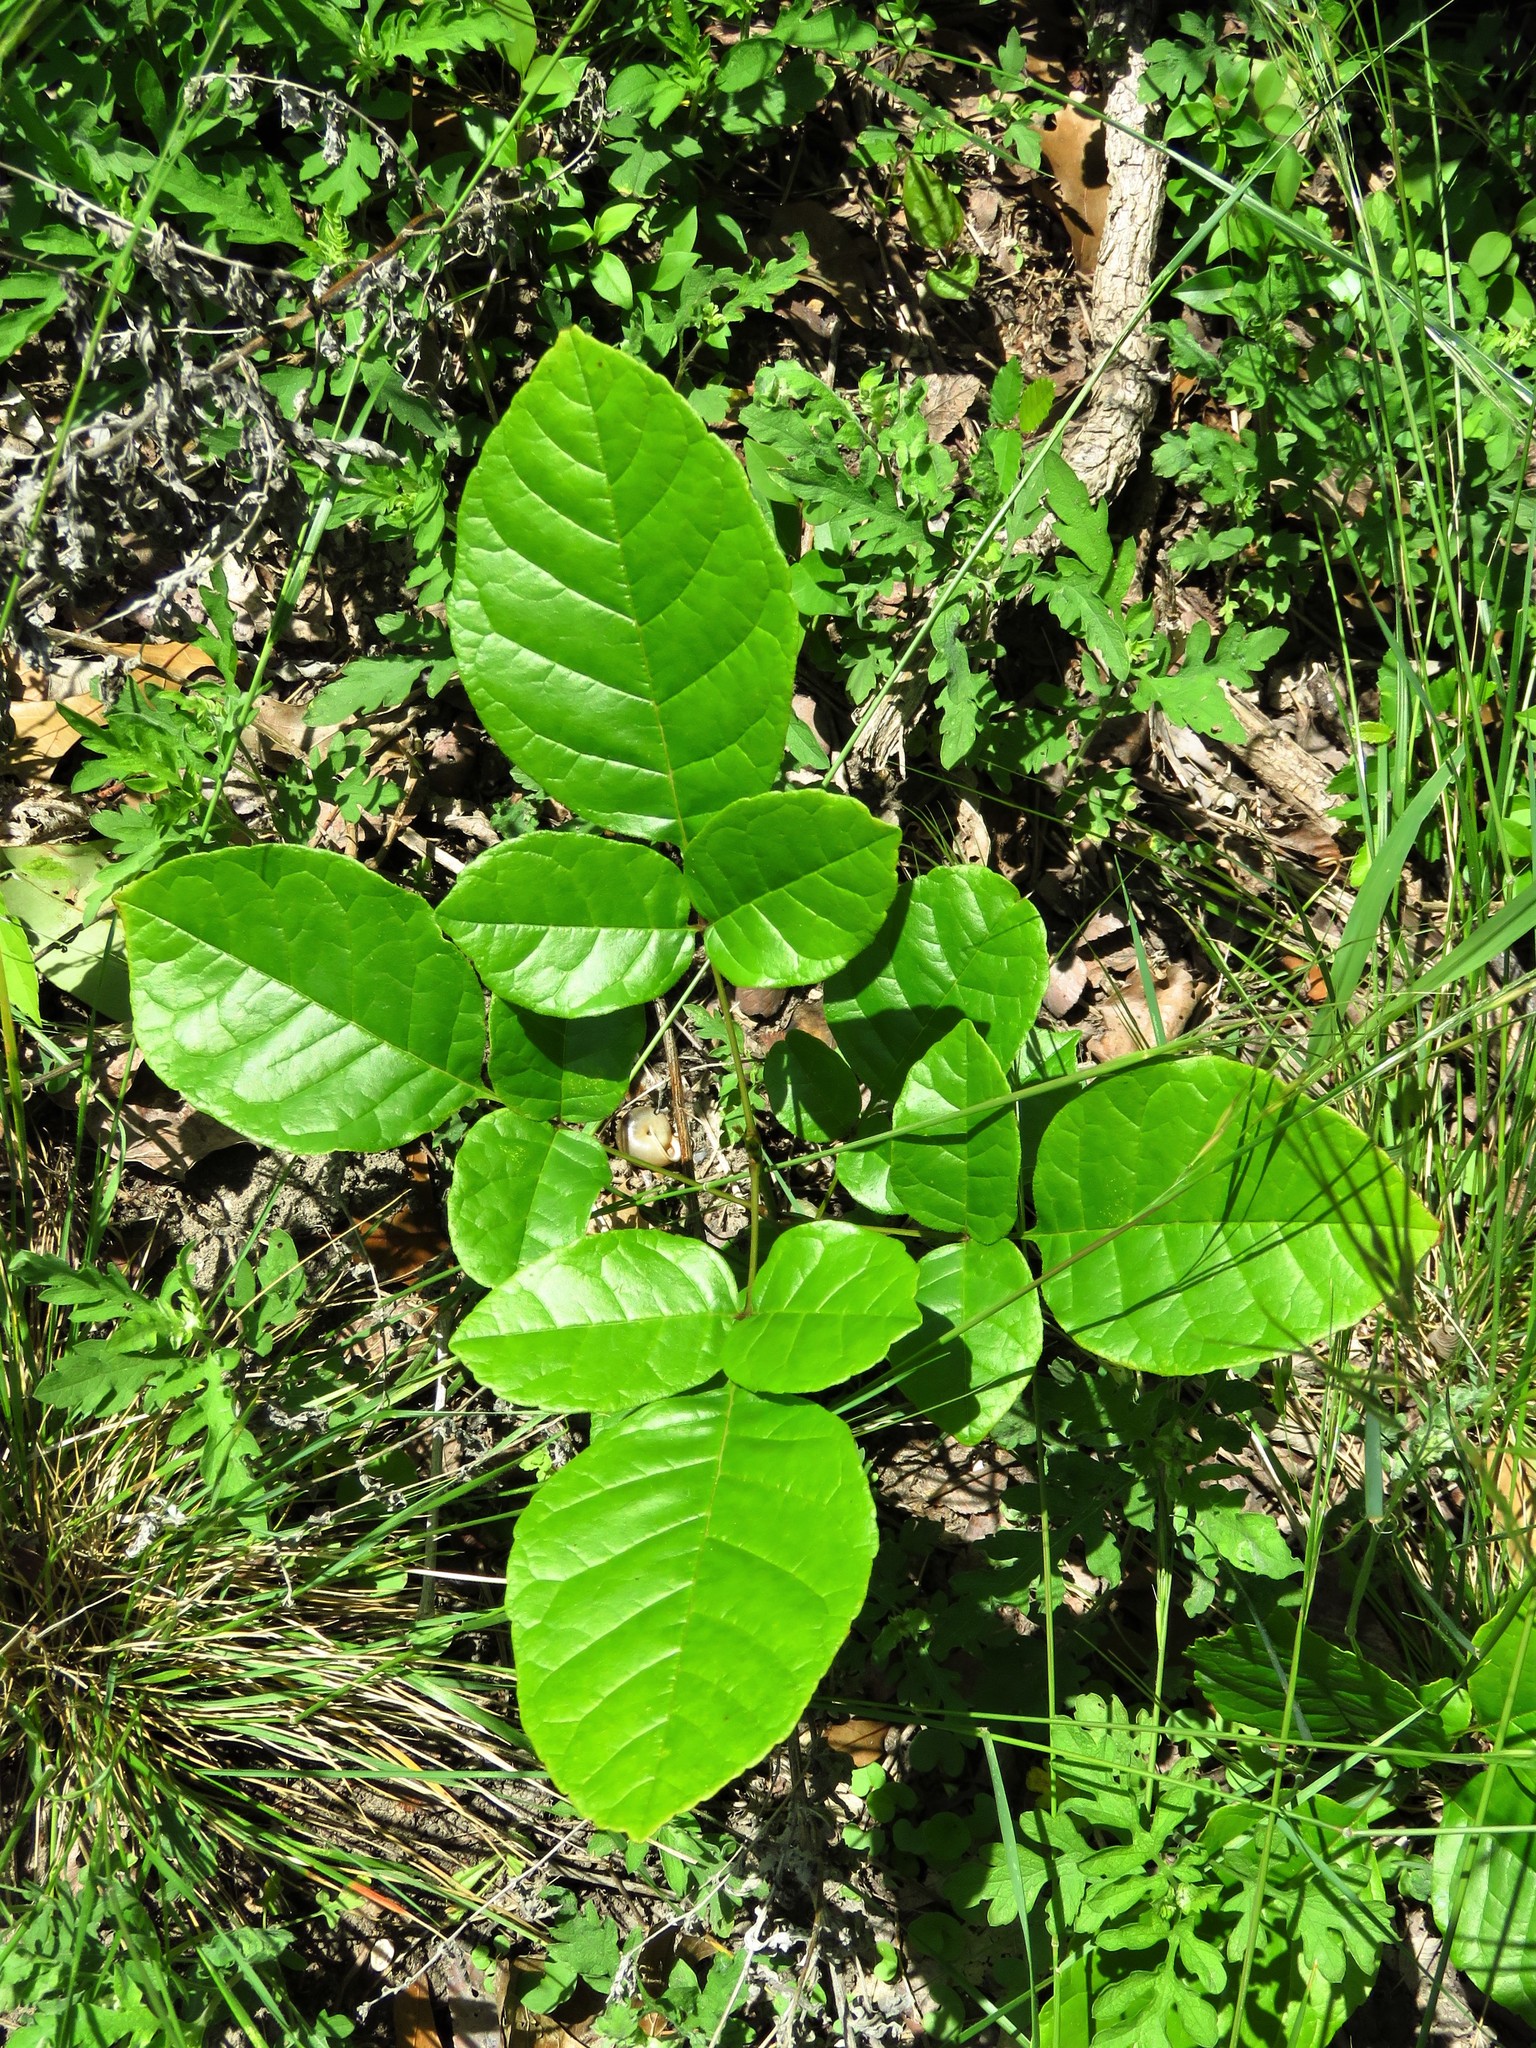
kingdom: Plantae
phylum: Tracheophyta
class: Magnoliopsida
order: Lamiales
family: Oleaceae
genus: Fraxinus
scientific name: Fraxinus albicans
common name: Texas ash
